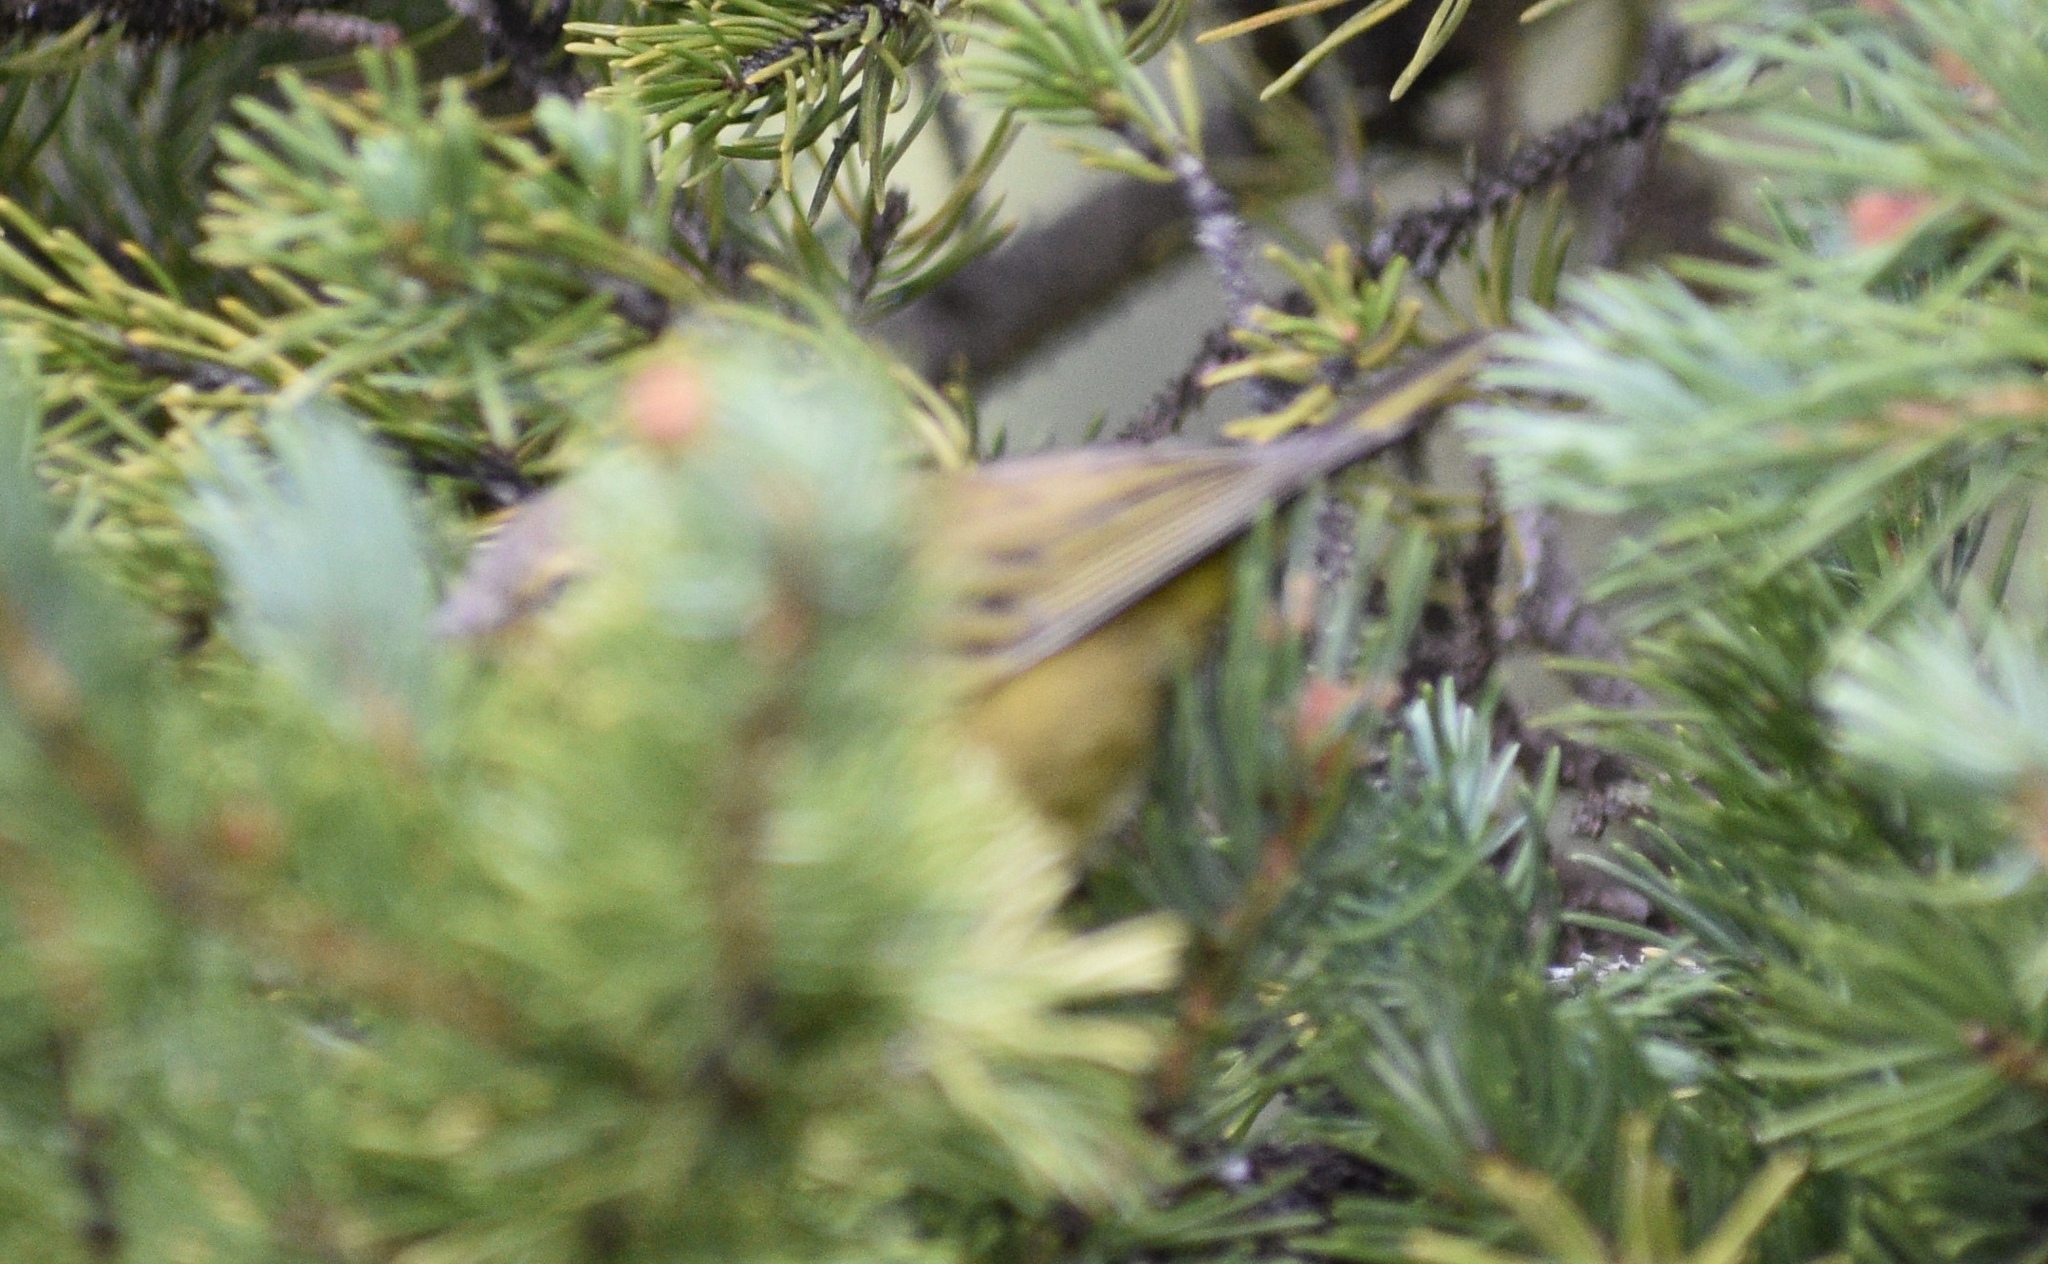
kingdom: Animalia
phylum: Chordata
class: Aves
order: Passeriformes
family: Parulidae
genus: Leiothlypis
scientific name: Leiothlypis celata
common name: Orange-crowned warbler
